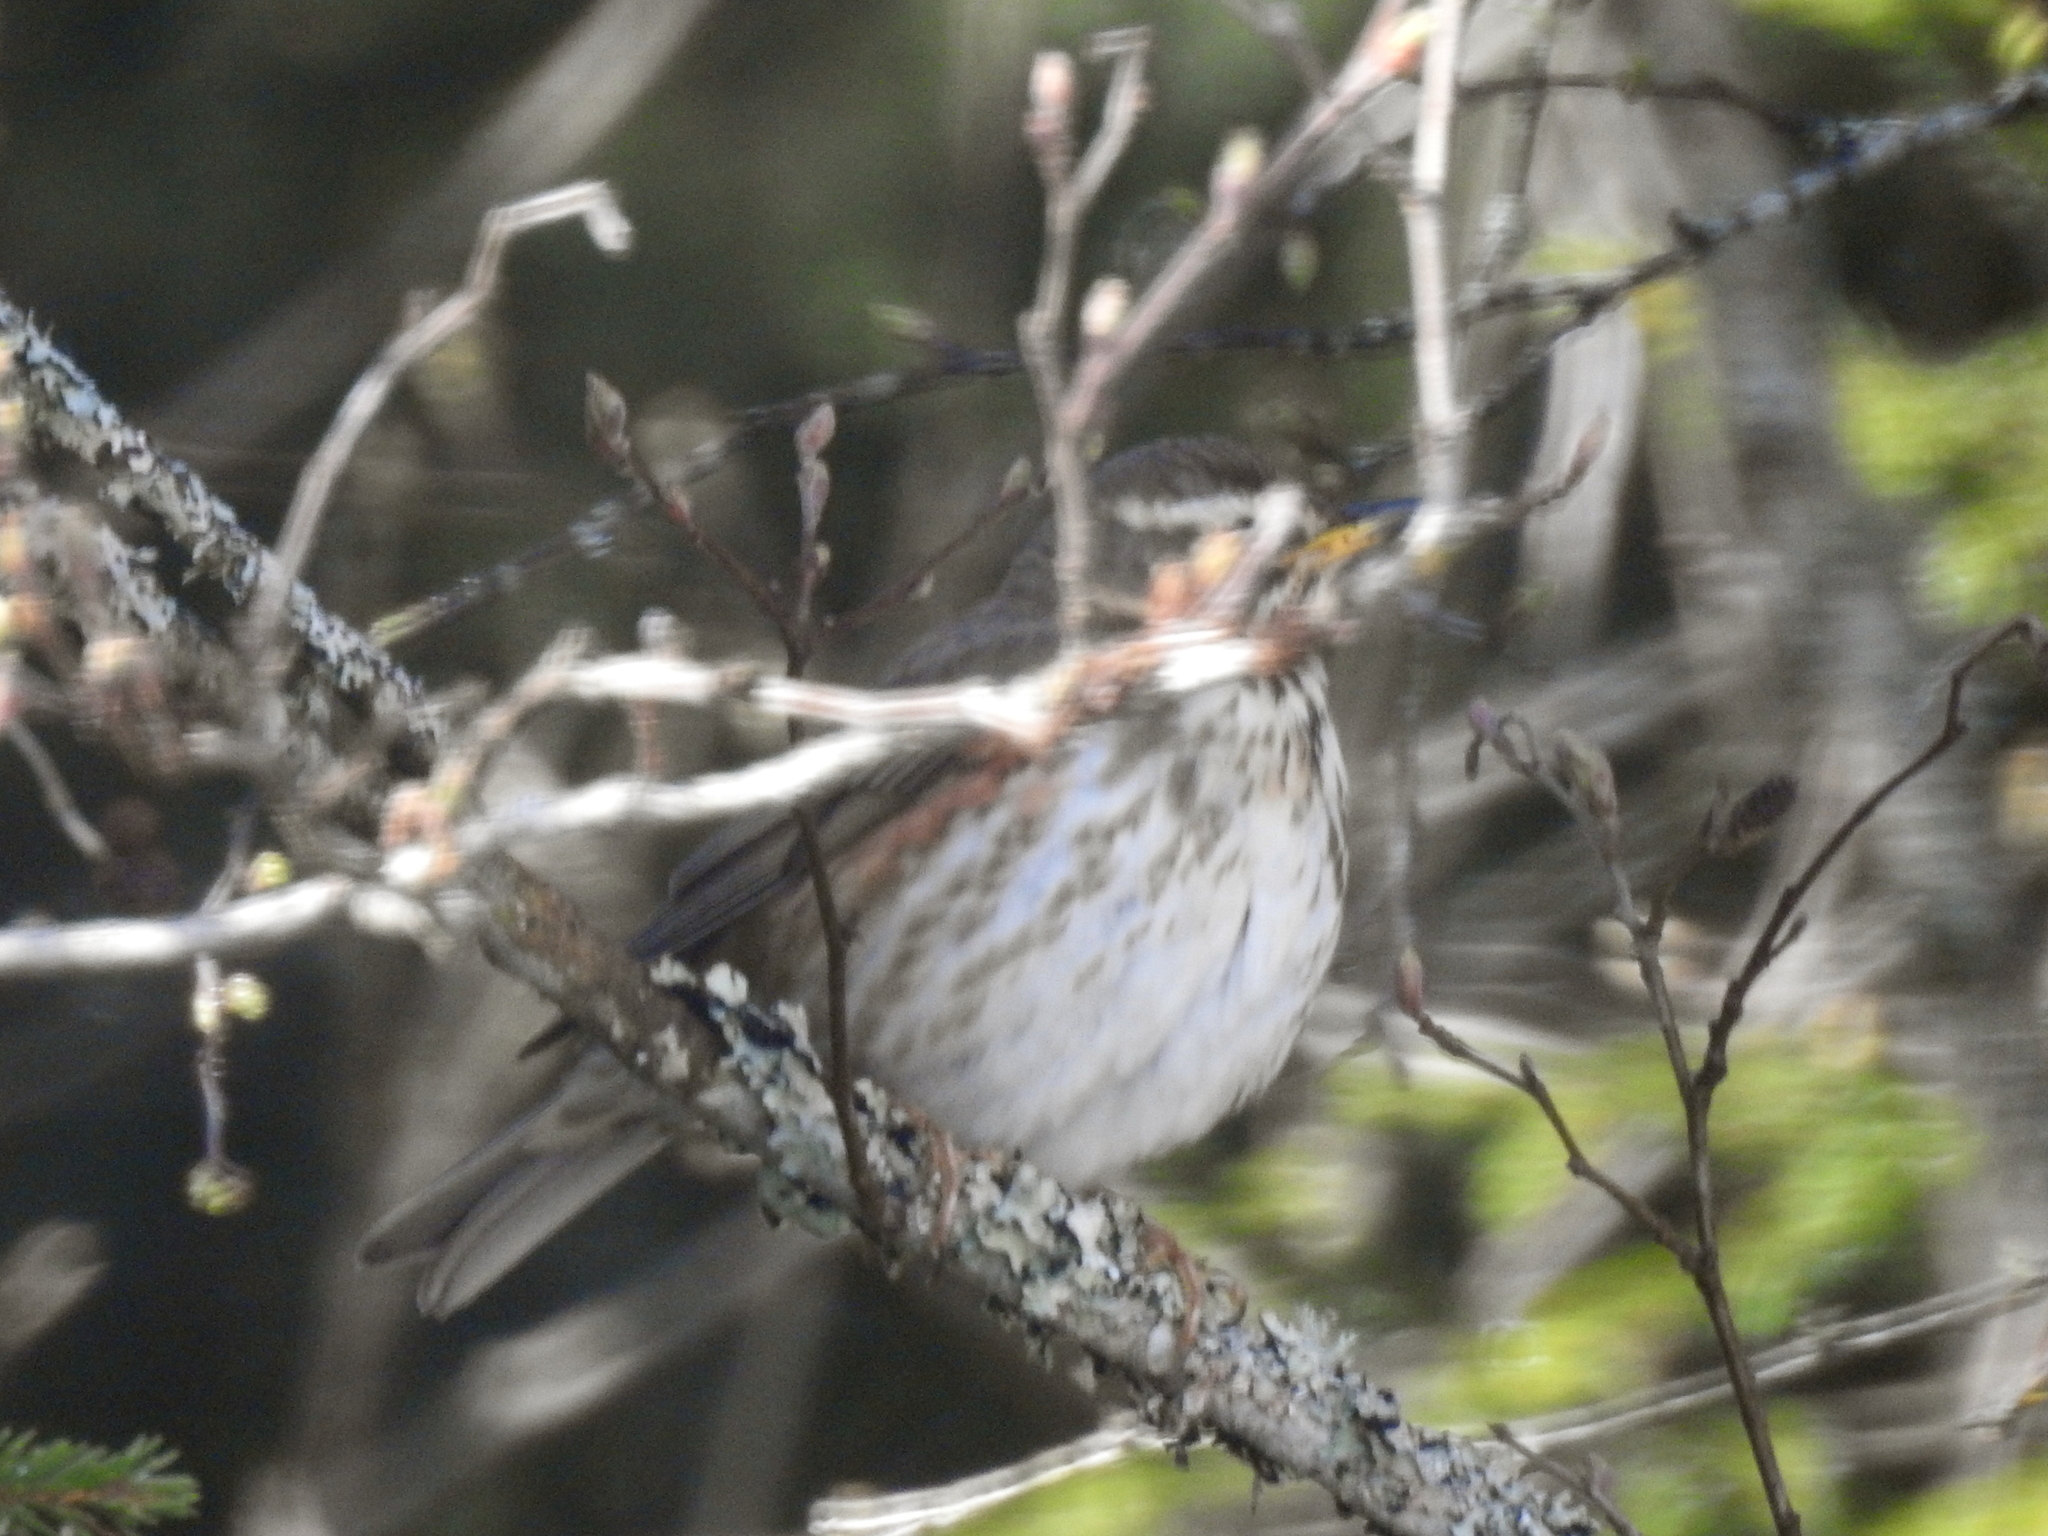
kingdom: Animalia
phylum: Chordata
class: Aves
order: Passeriformes
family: Turdidae
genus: Turdus
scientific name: Turdus iliacus
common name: Redwing
